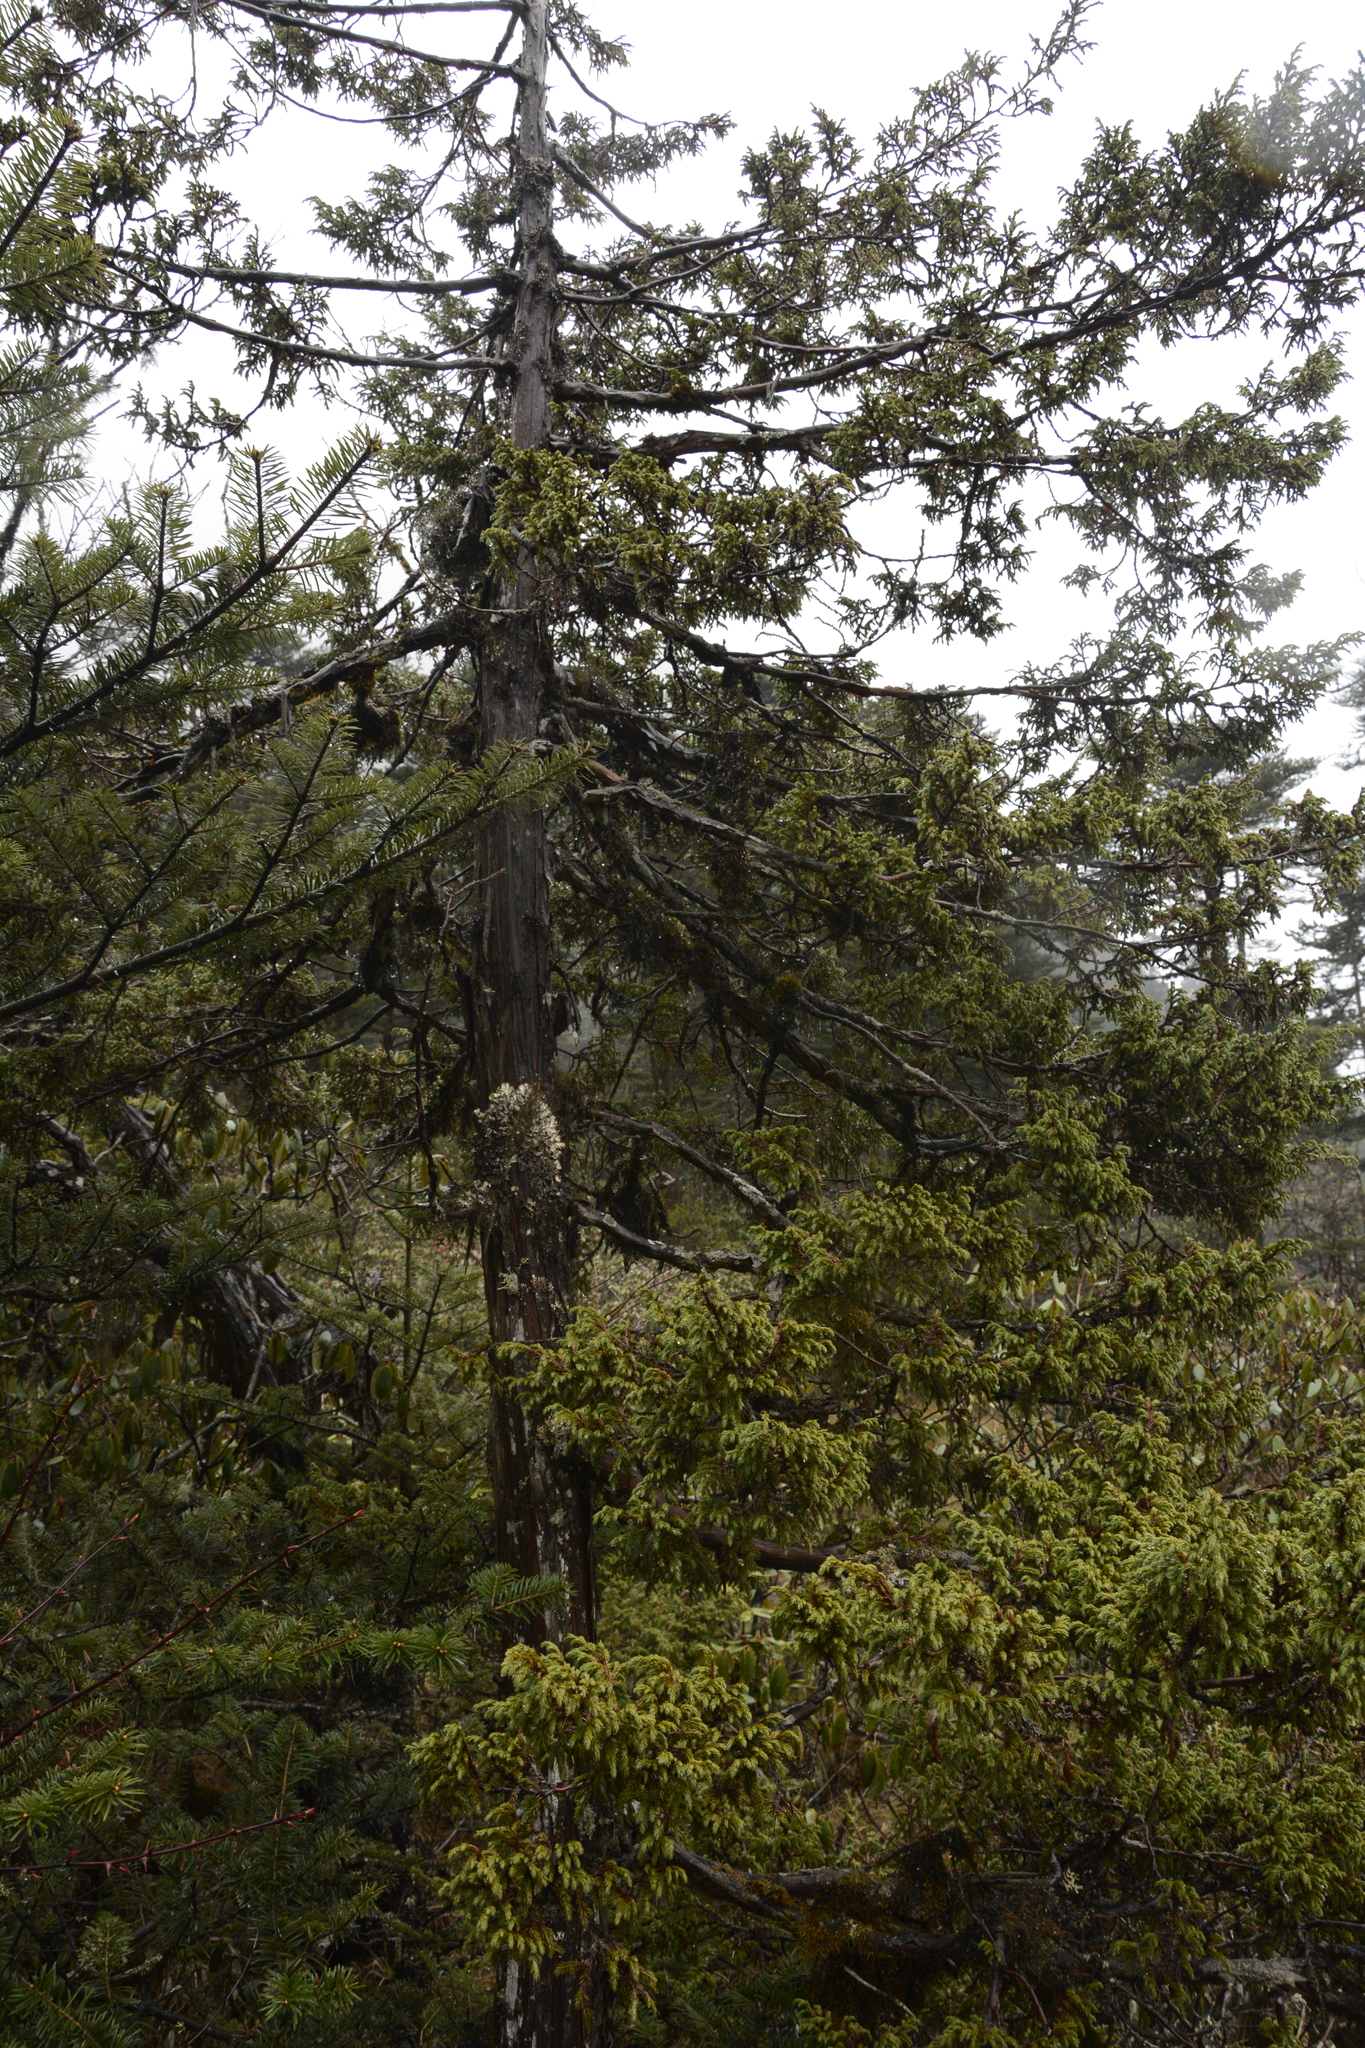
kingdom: Plantae
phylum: Tracheophyta
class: Pinopsida
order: Pinales
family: Cupressaceae
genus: Juniperus
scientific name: Juniperus recurva
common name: Drooping juniper
